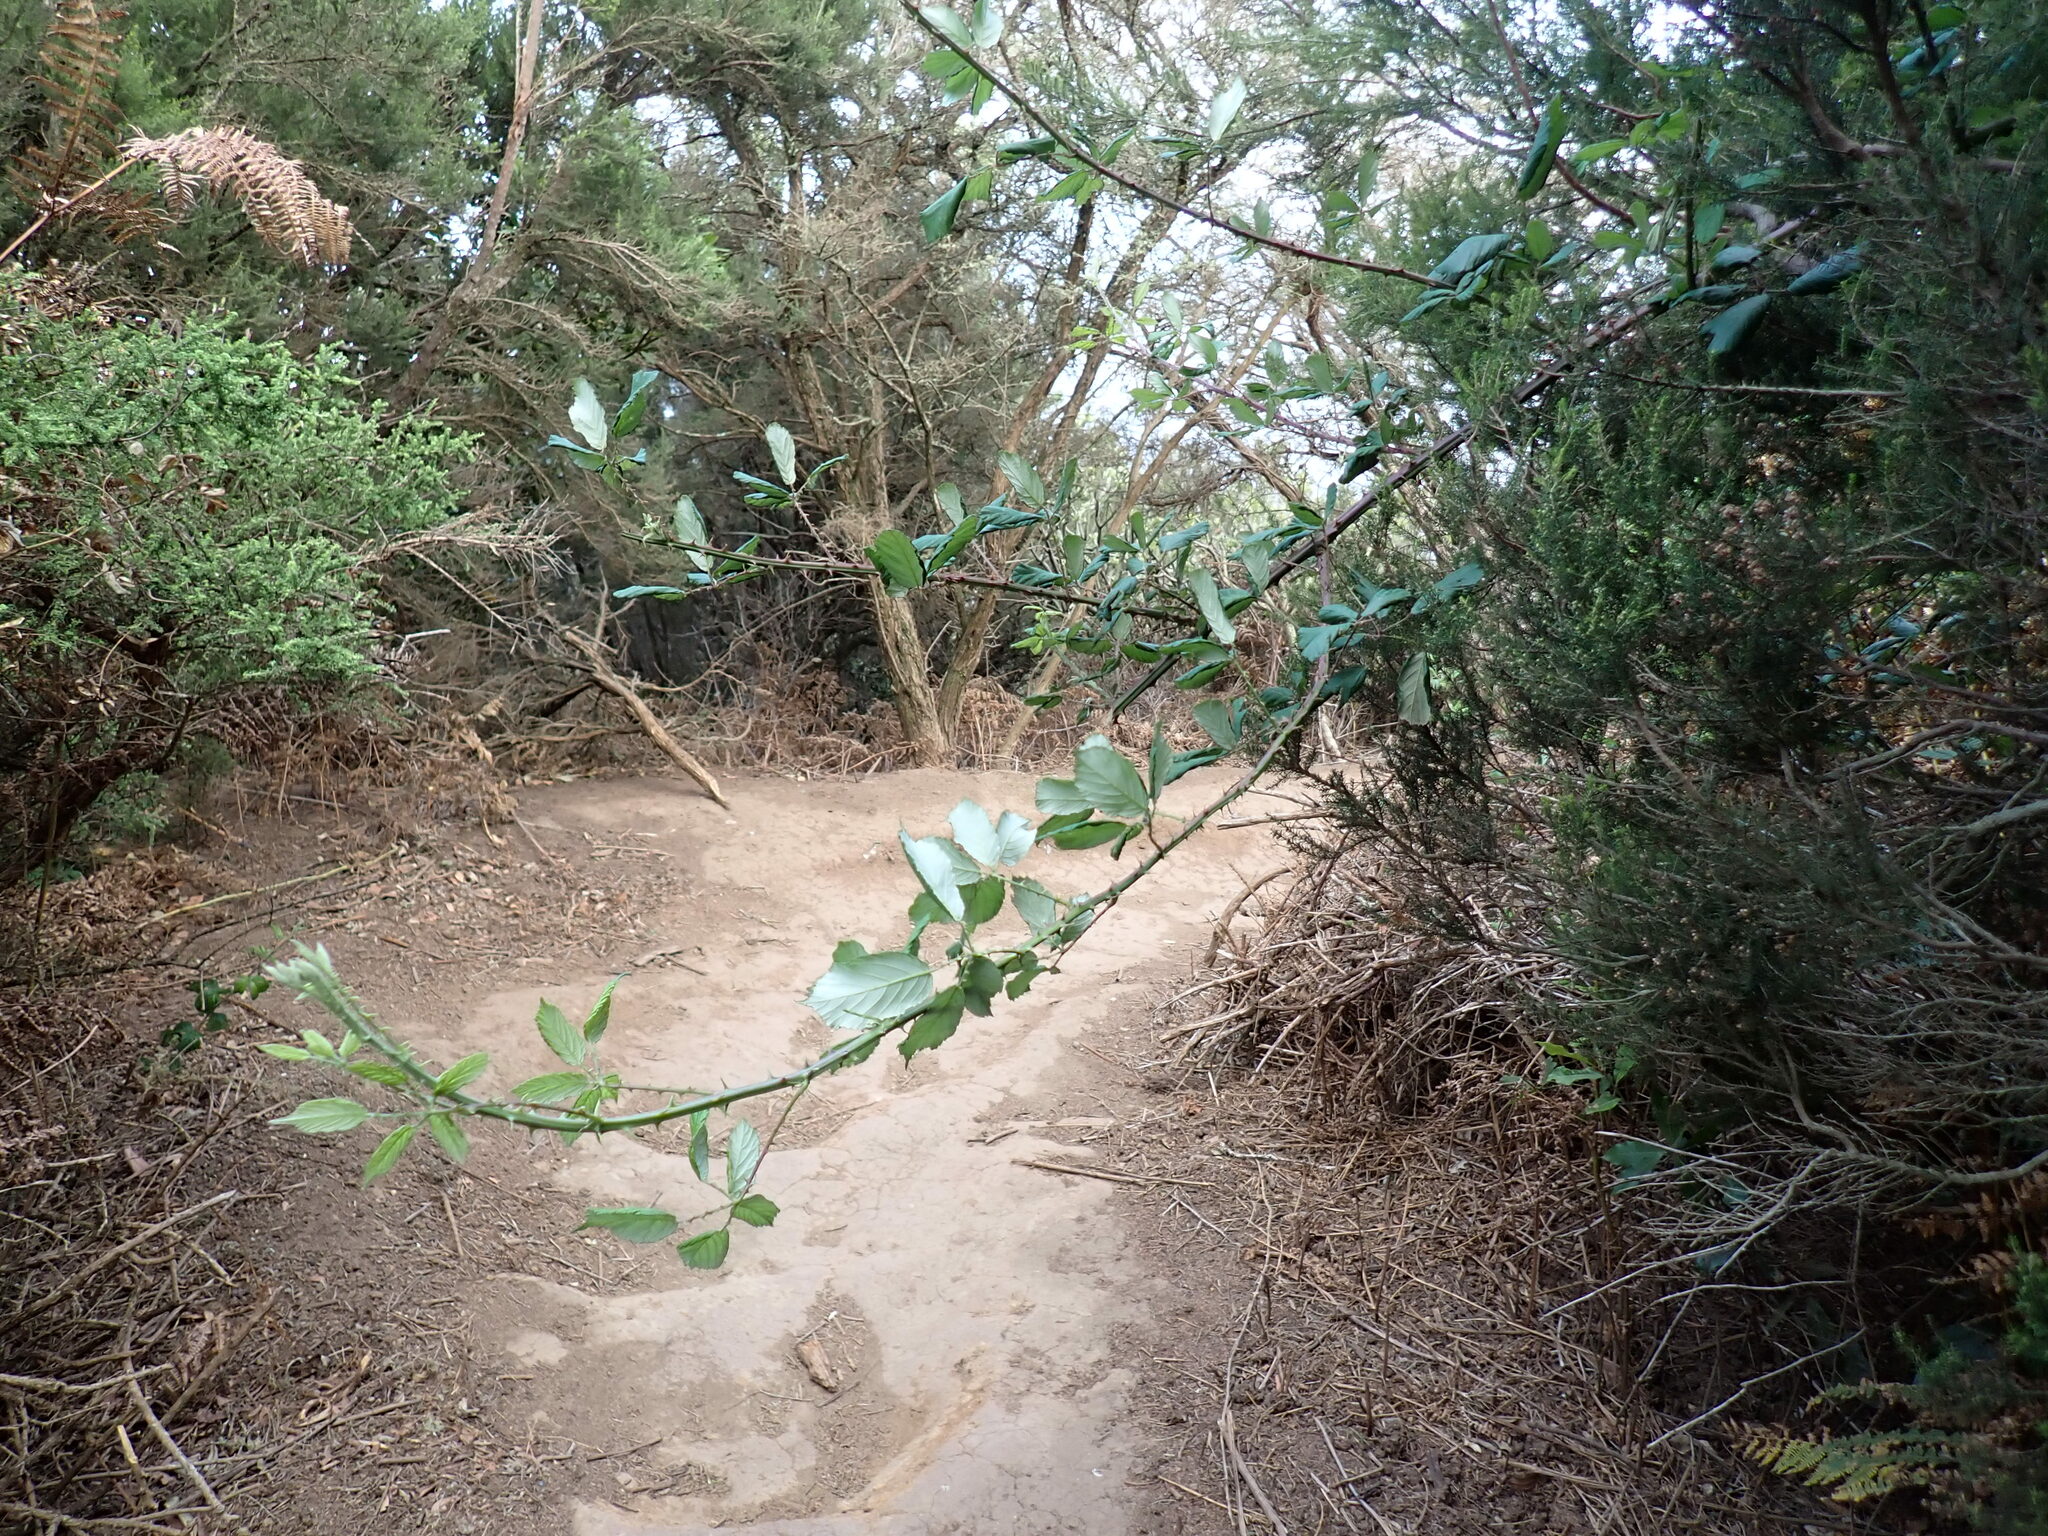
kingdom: Plantae
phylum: Tracheophyta
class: Magnoliopsida
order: Rosales
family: Rosaceae
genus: Rubus
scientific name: Rubus ulmifolius
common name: Elmleaf blackberry
